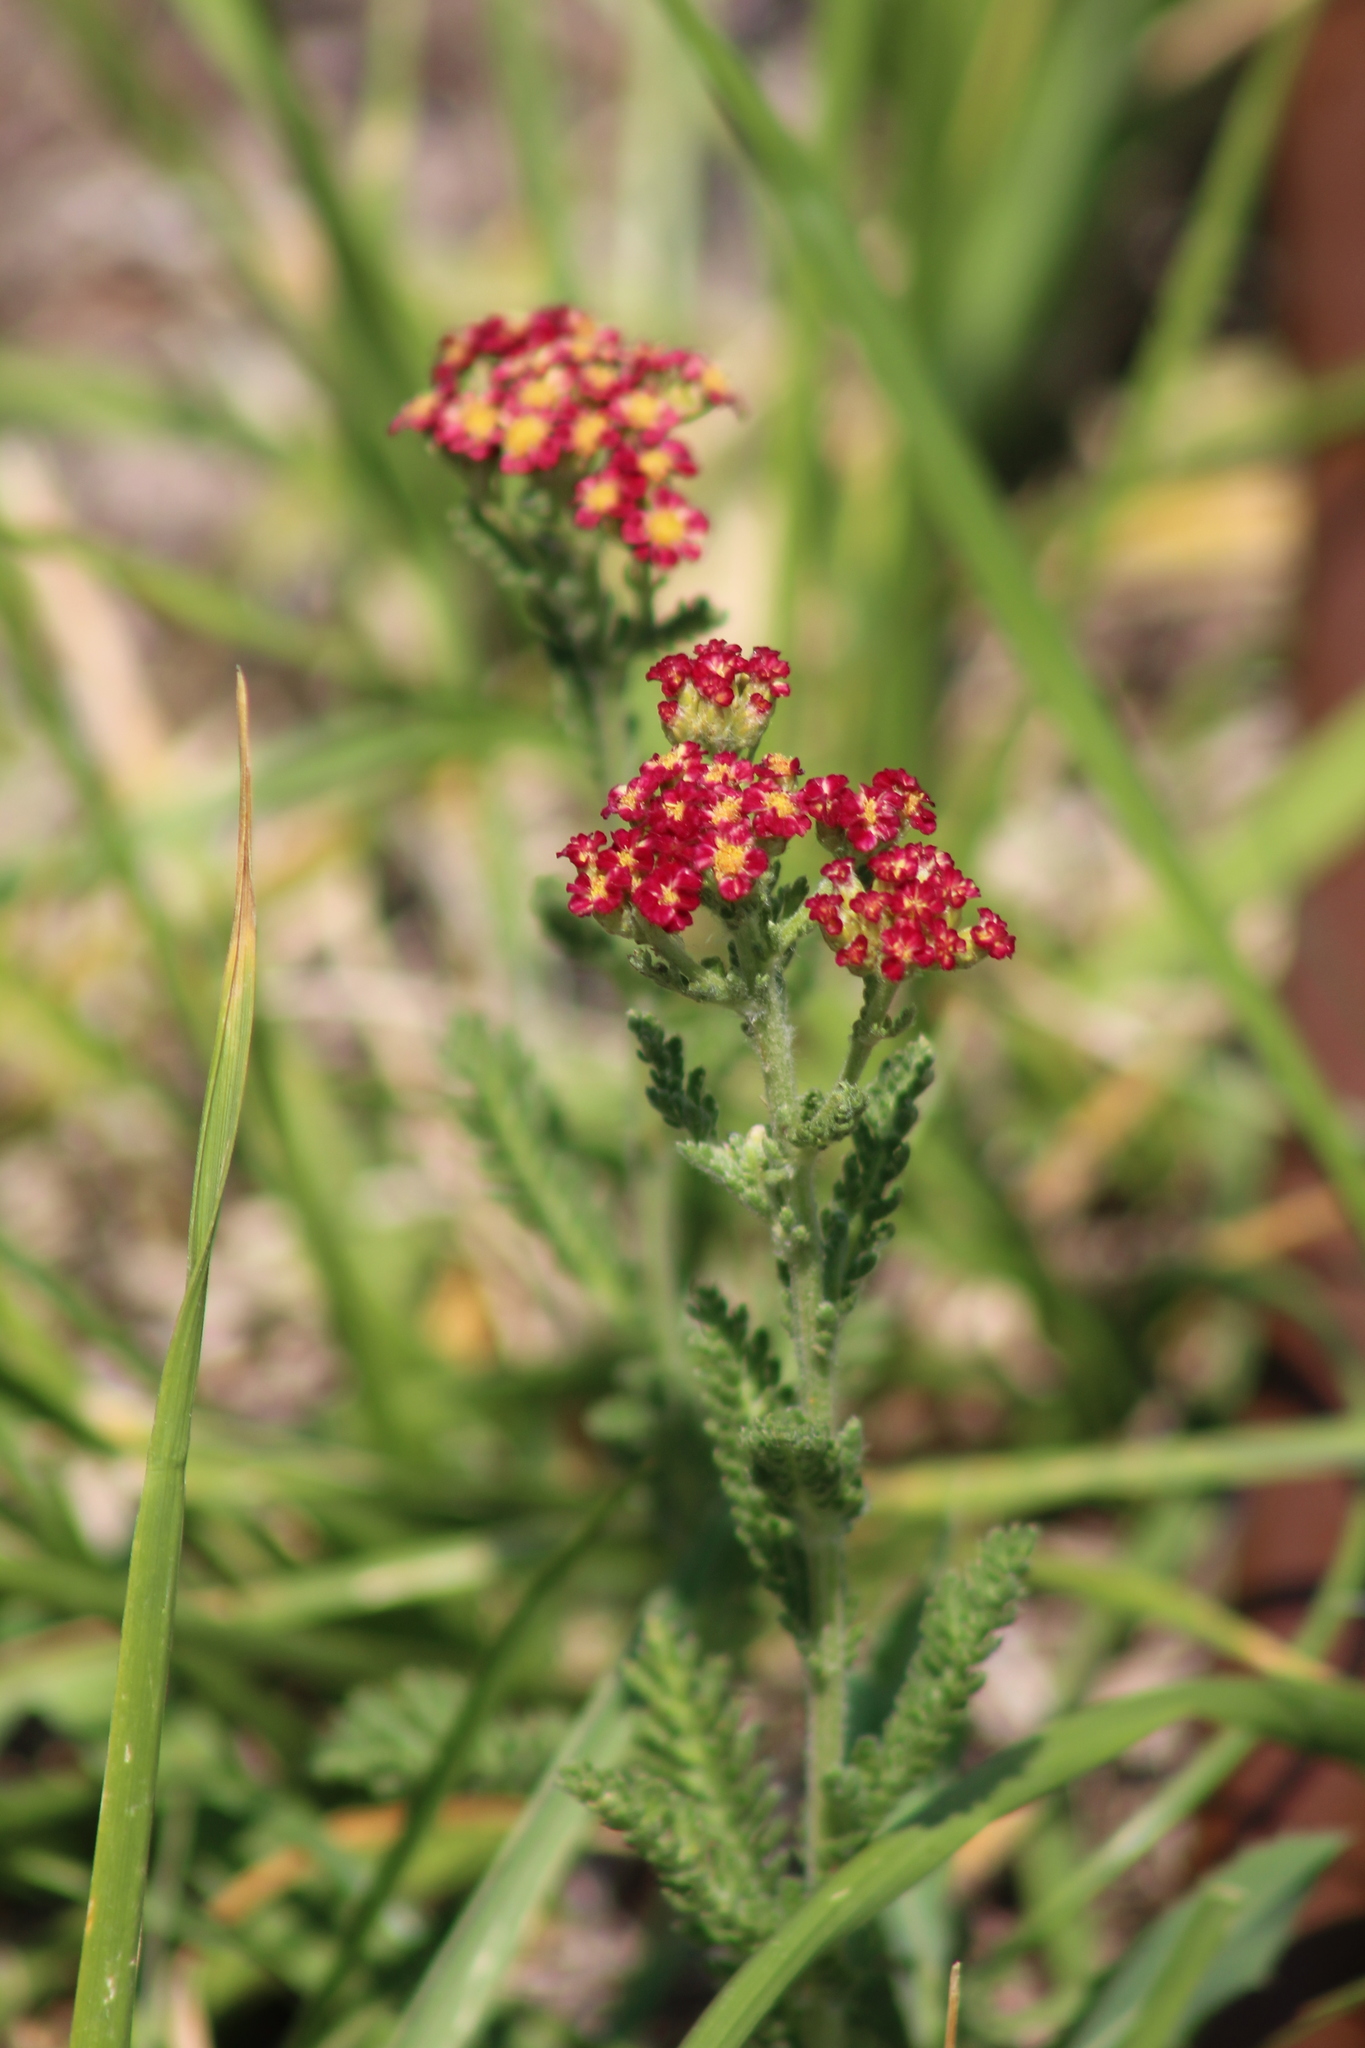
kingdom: Plantae
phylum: Tracheophyta
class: Magnoliopsida
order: Asterales
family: Asteraceae
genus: Achillea
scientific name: Achillea millefolium
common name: Yarrow
